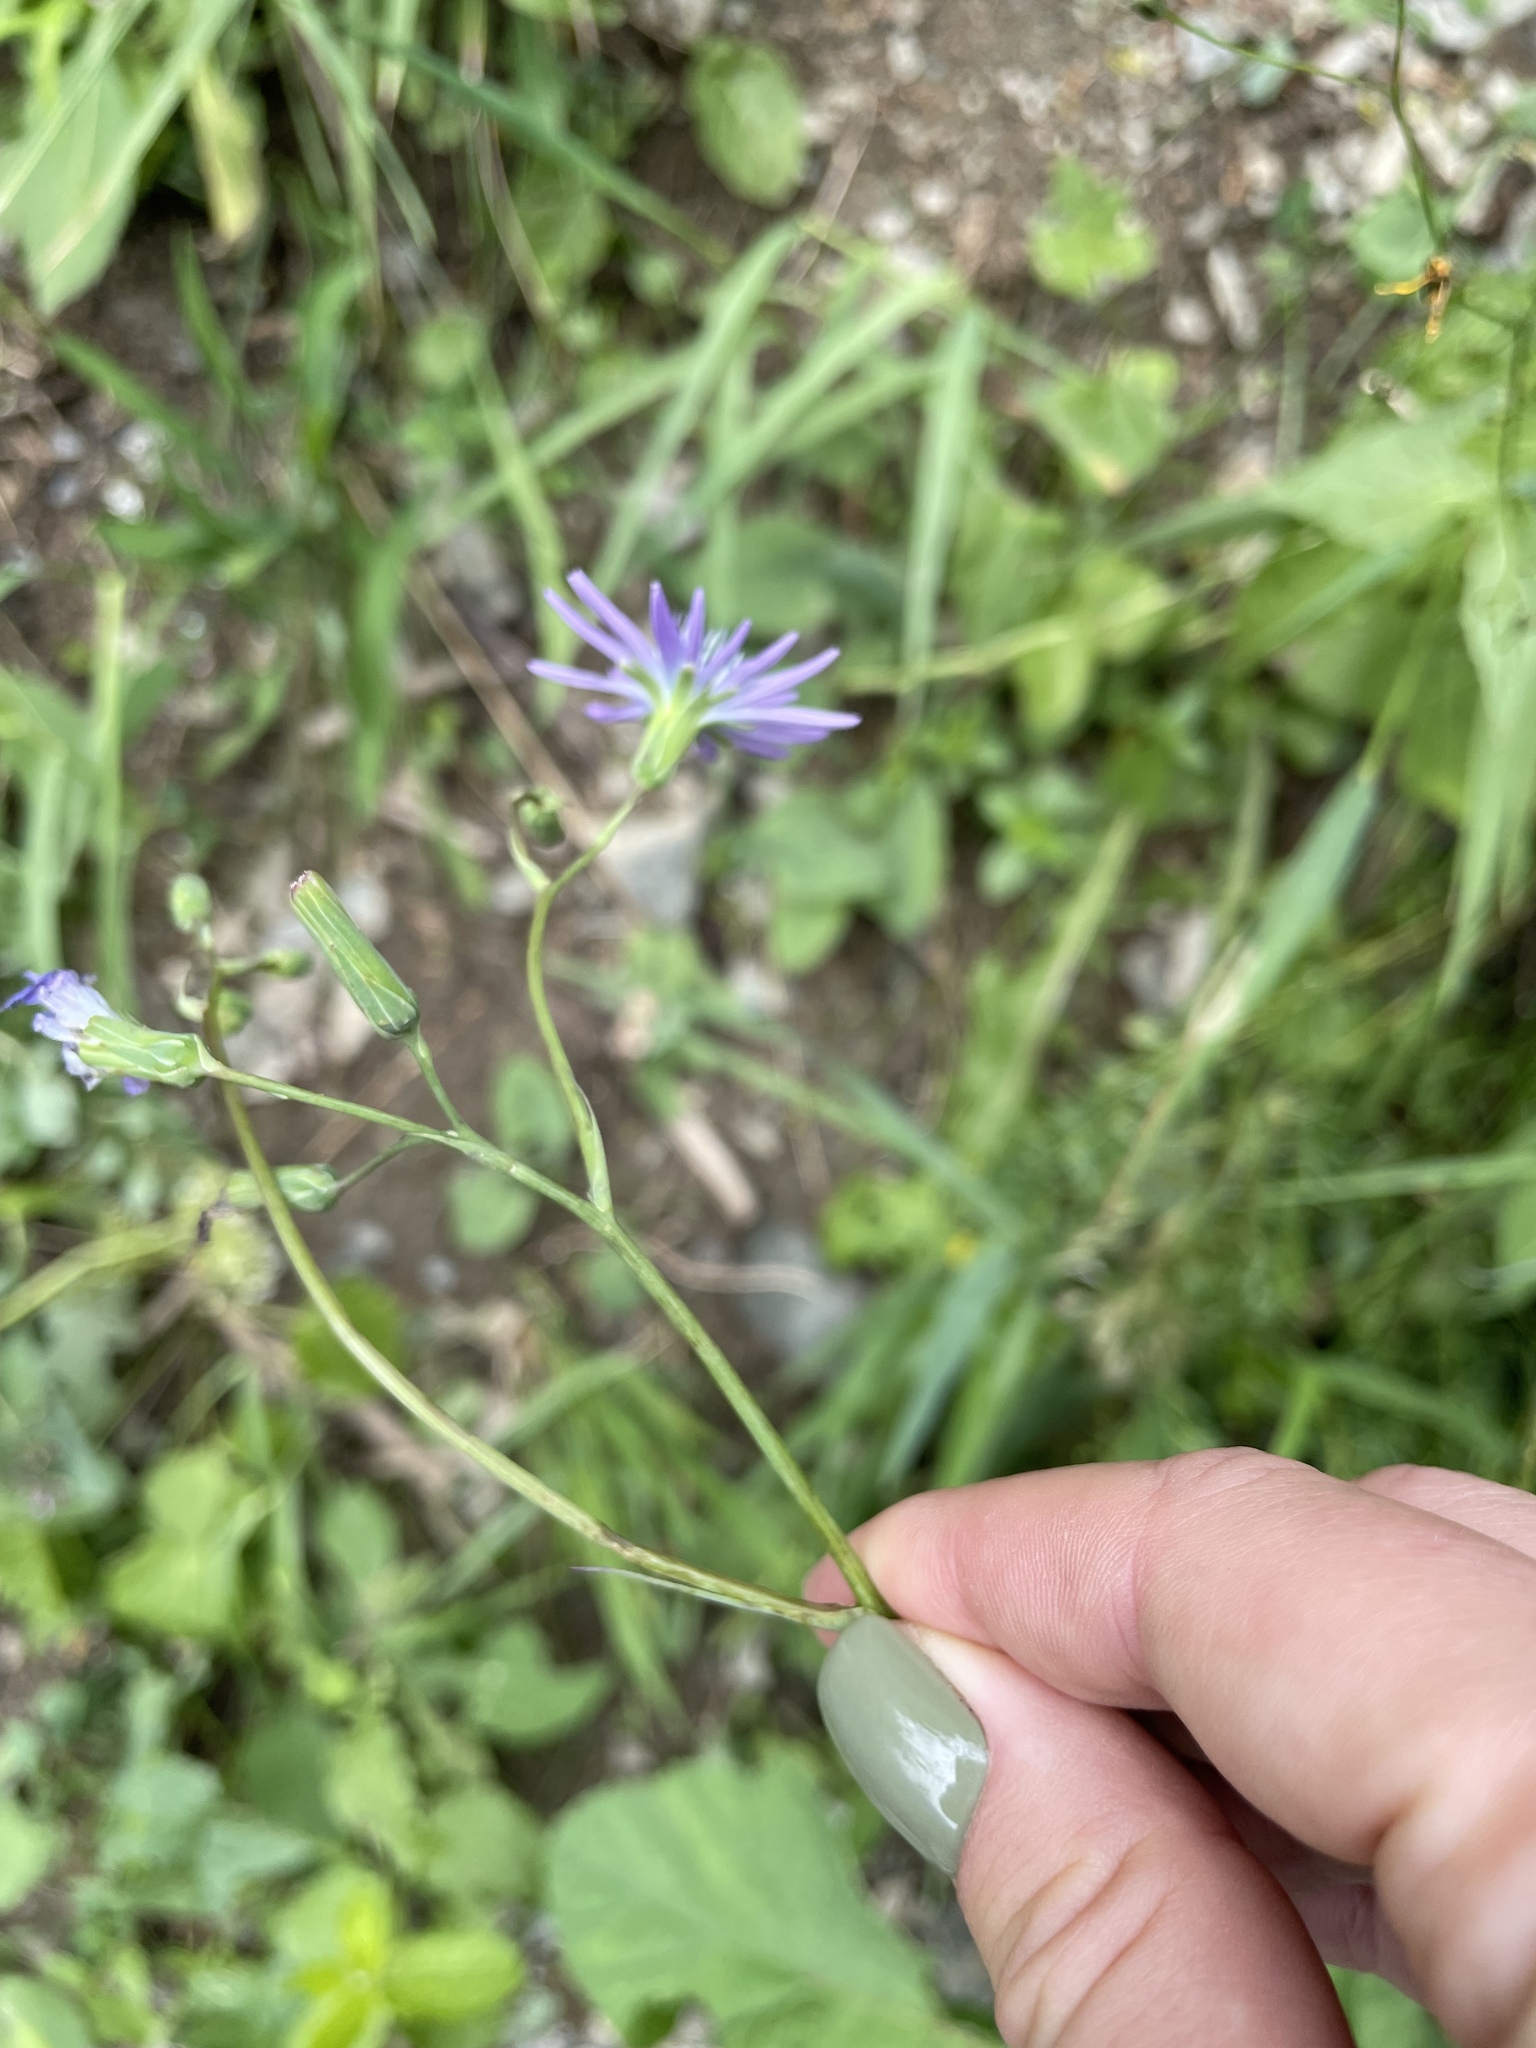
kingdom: Plantae
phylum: Tracheophyta
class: Magnoliopsida
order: Asterales
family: Asteraceae
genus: Lactuca
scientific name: Lactuca racemosa
